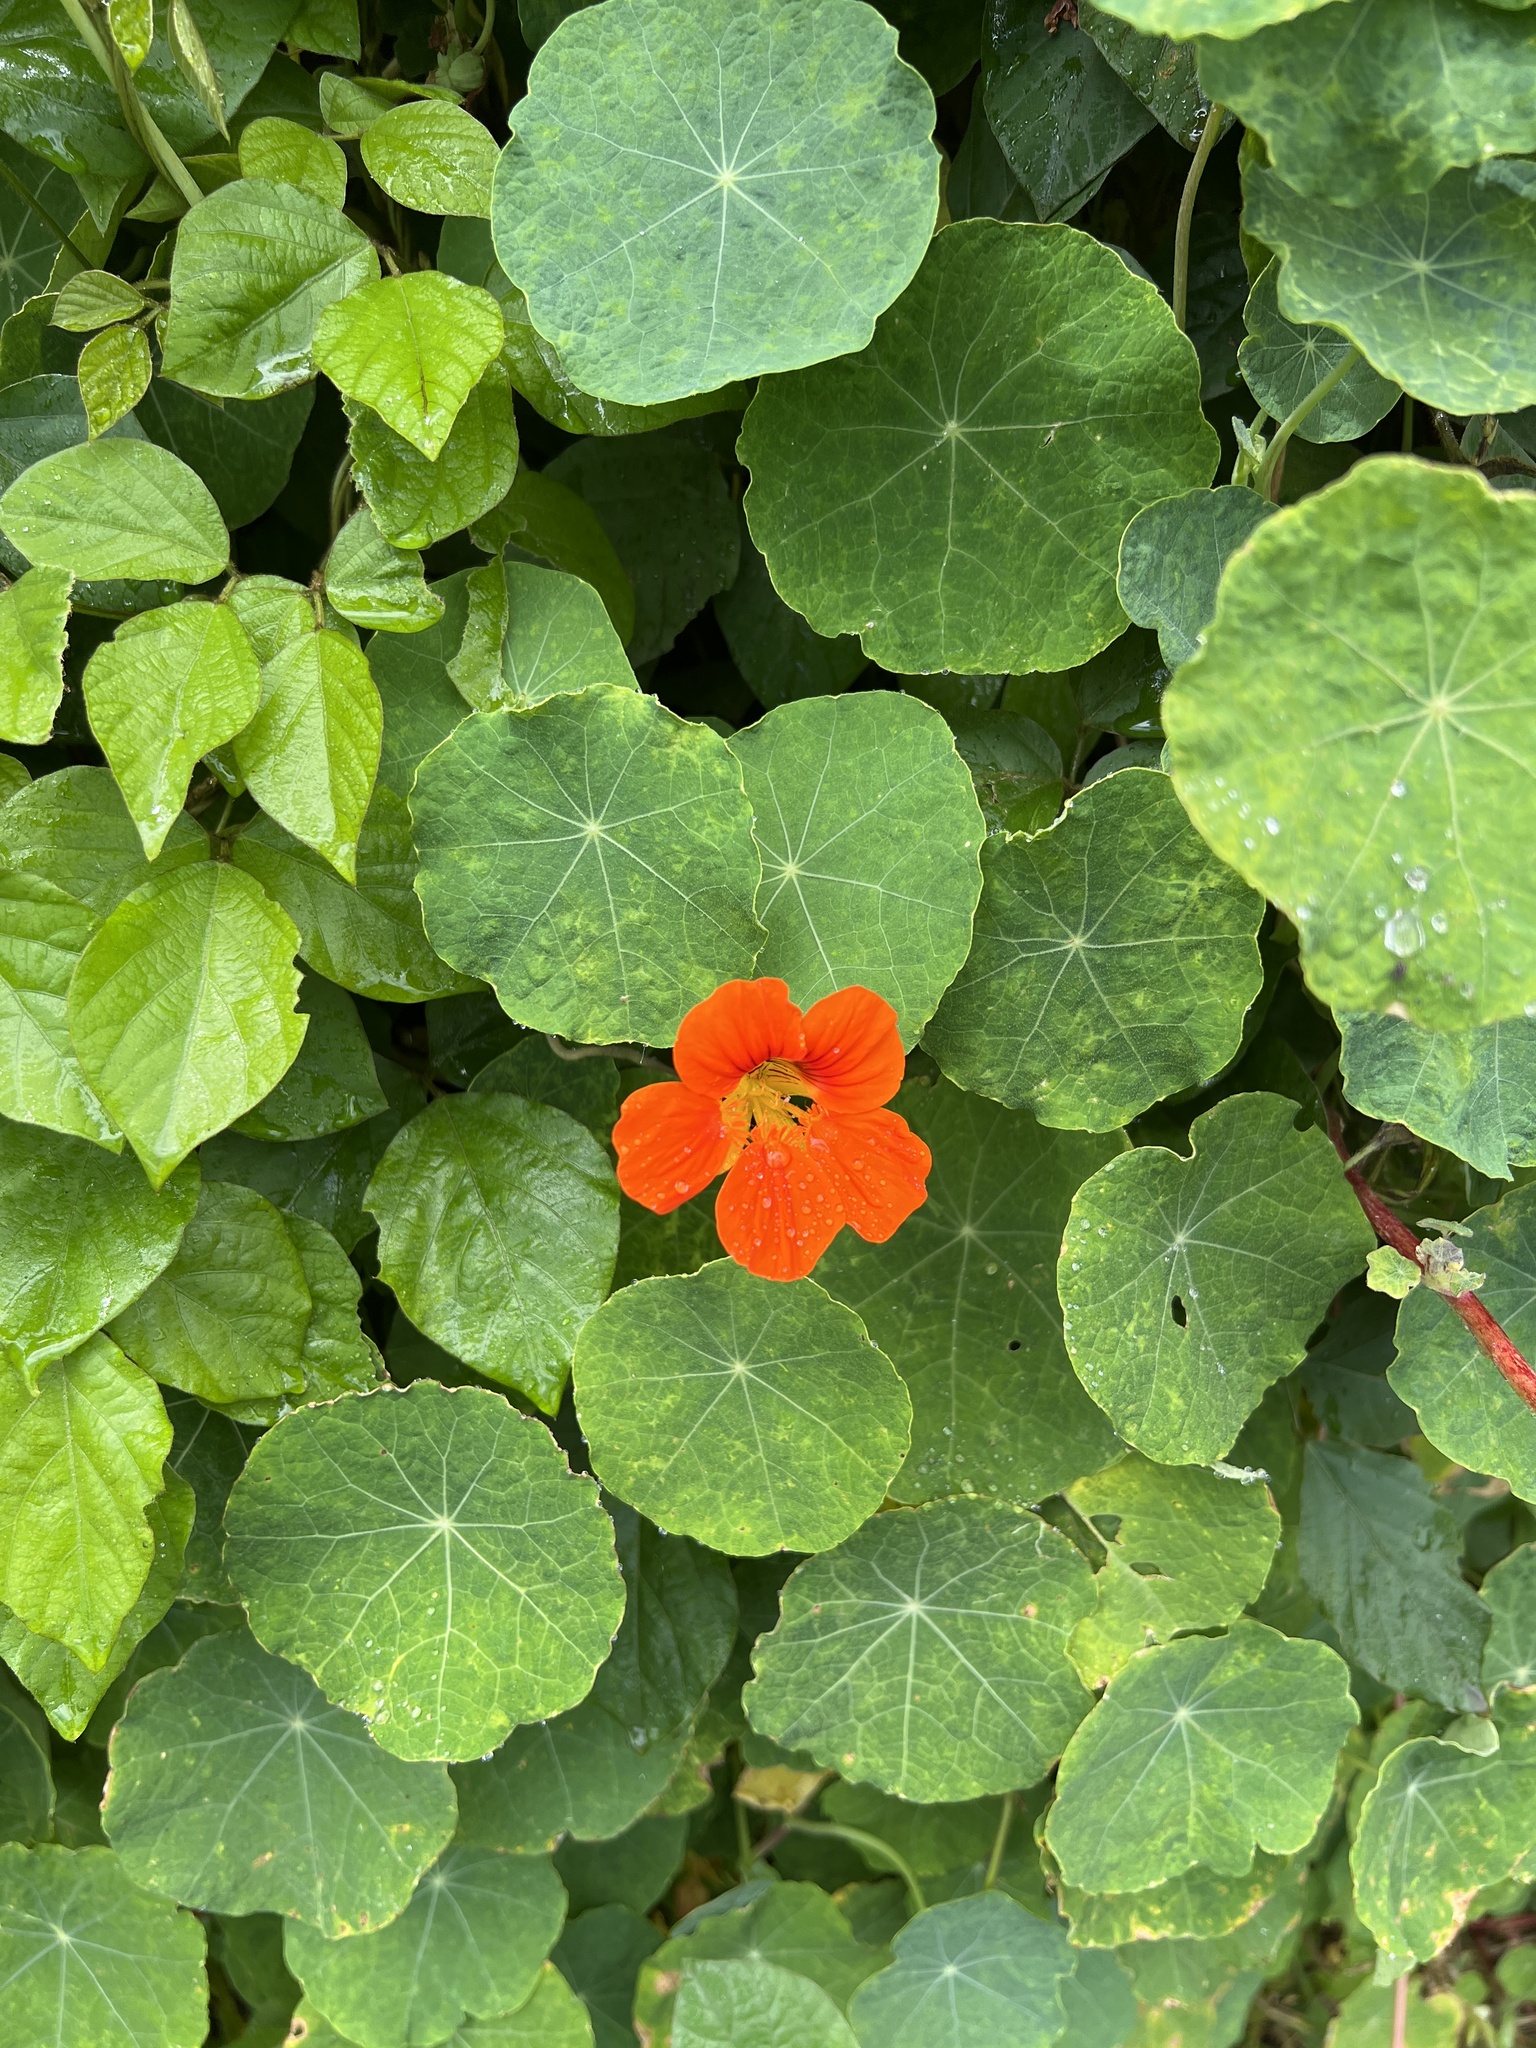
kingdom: Plantae
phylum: Tracheophyta
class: Magnoliopsida
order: Brassicales
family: Tropaeolaceae
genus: Tropaeolum
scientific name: Tropaeolum majus
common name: Nasturtium
